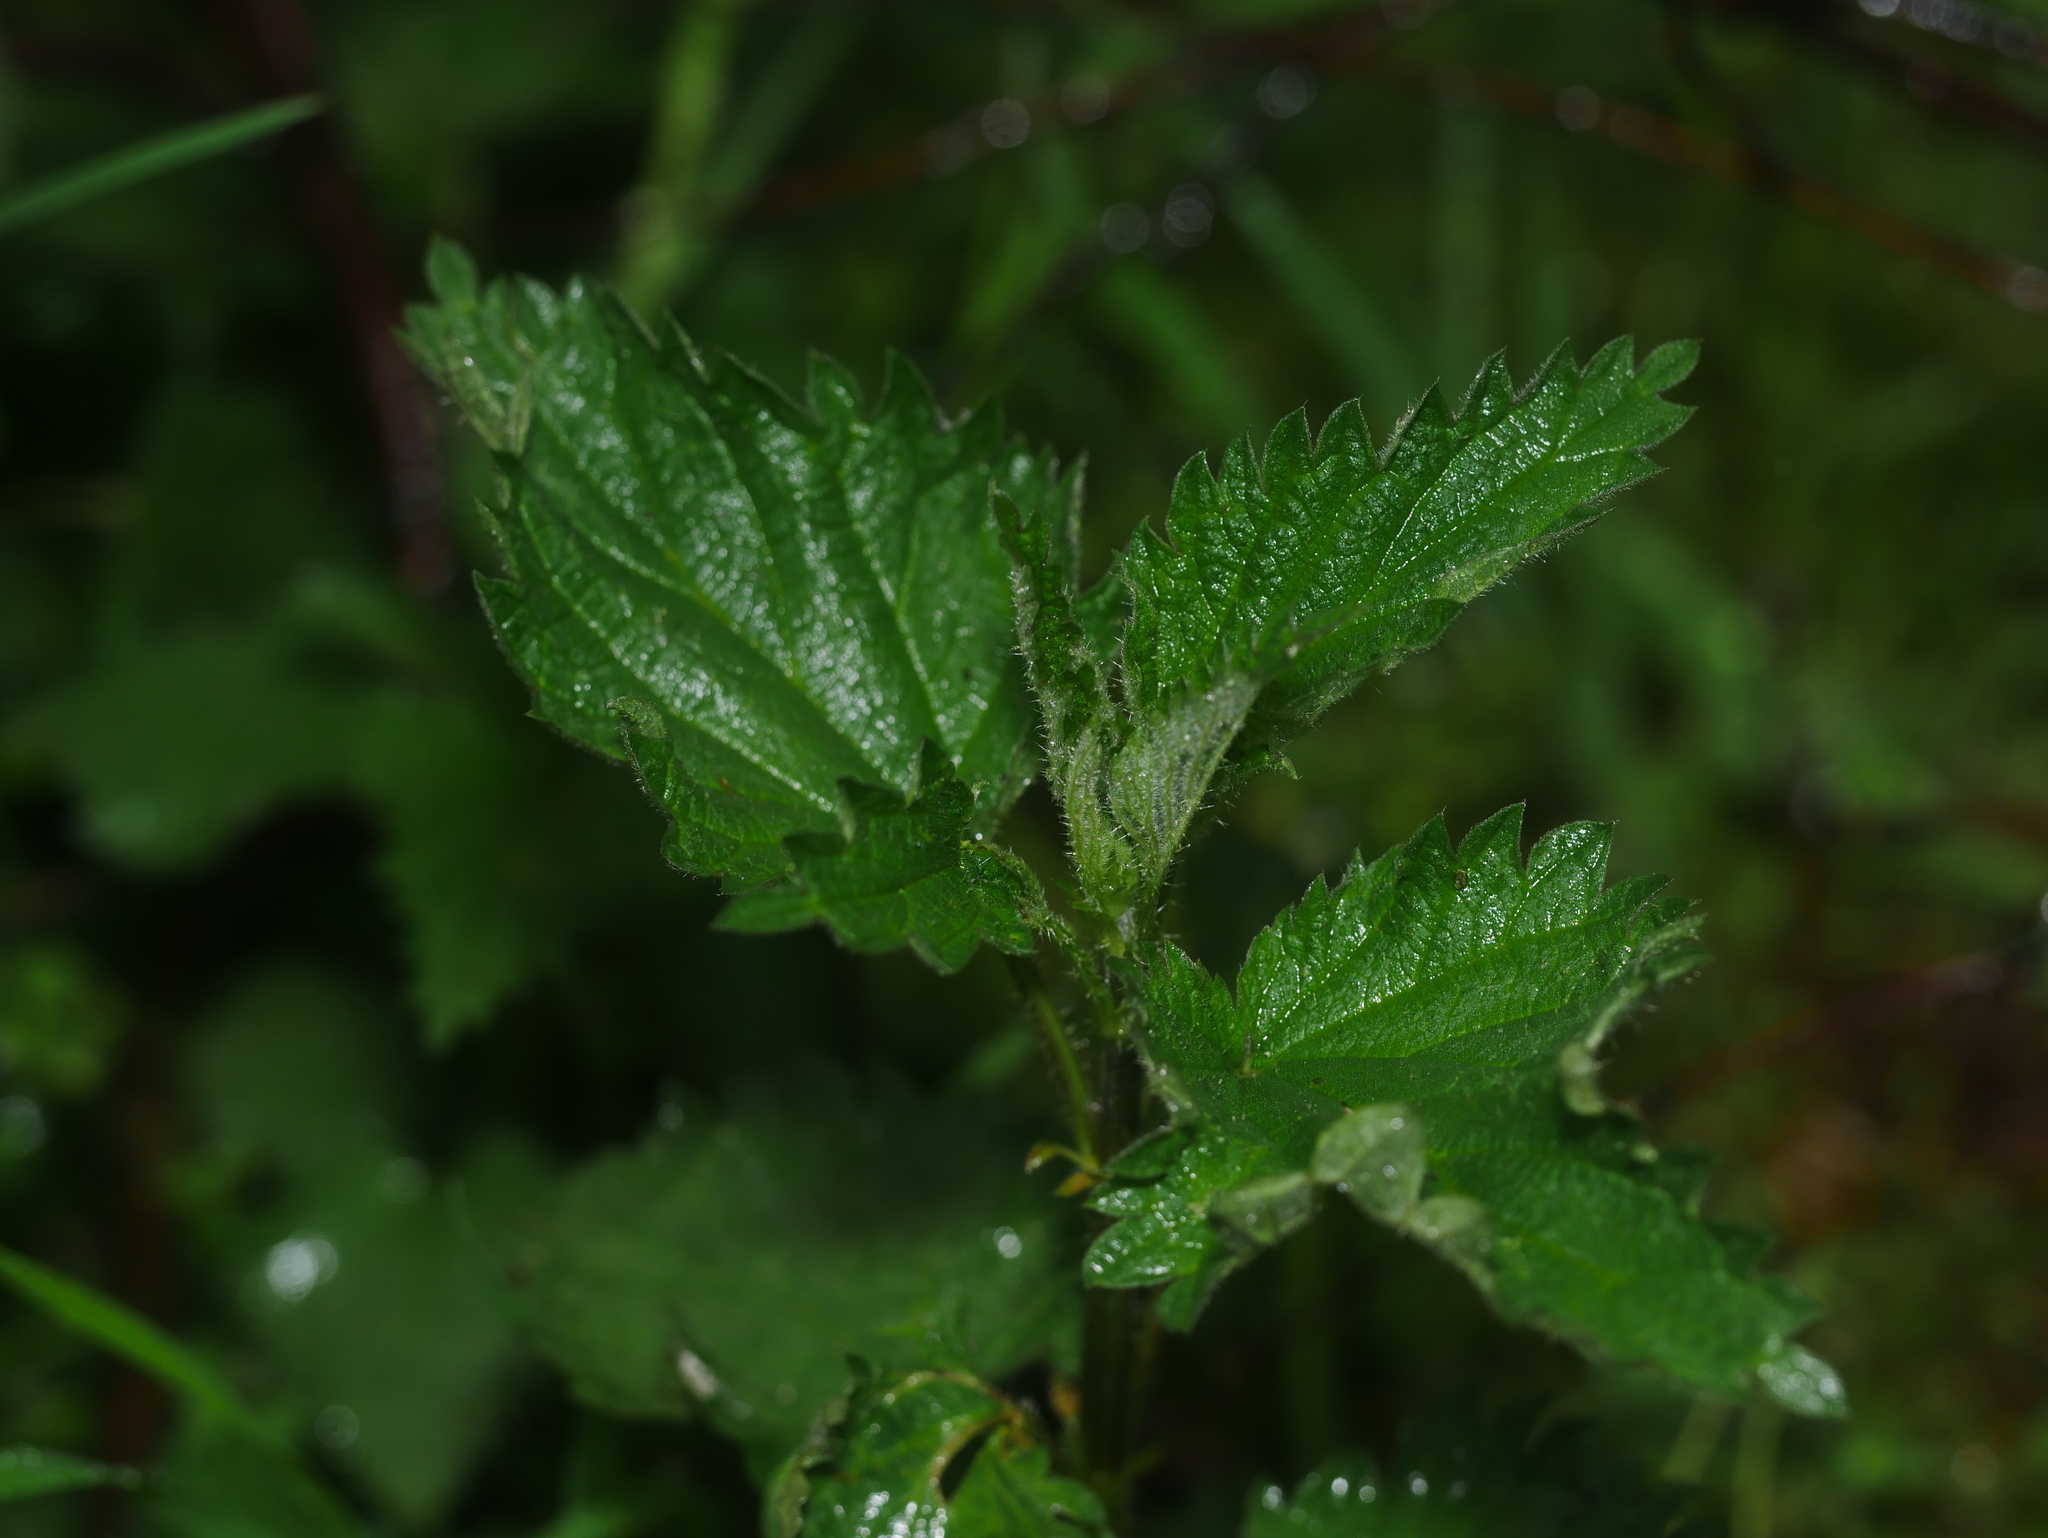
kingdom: Plantae
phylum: Tracheophyta
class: Magnoliopsida
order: Rosales
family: Urticaceae
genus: Urtica
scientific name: Urtica dioica
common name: Common nettle
